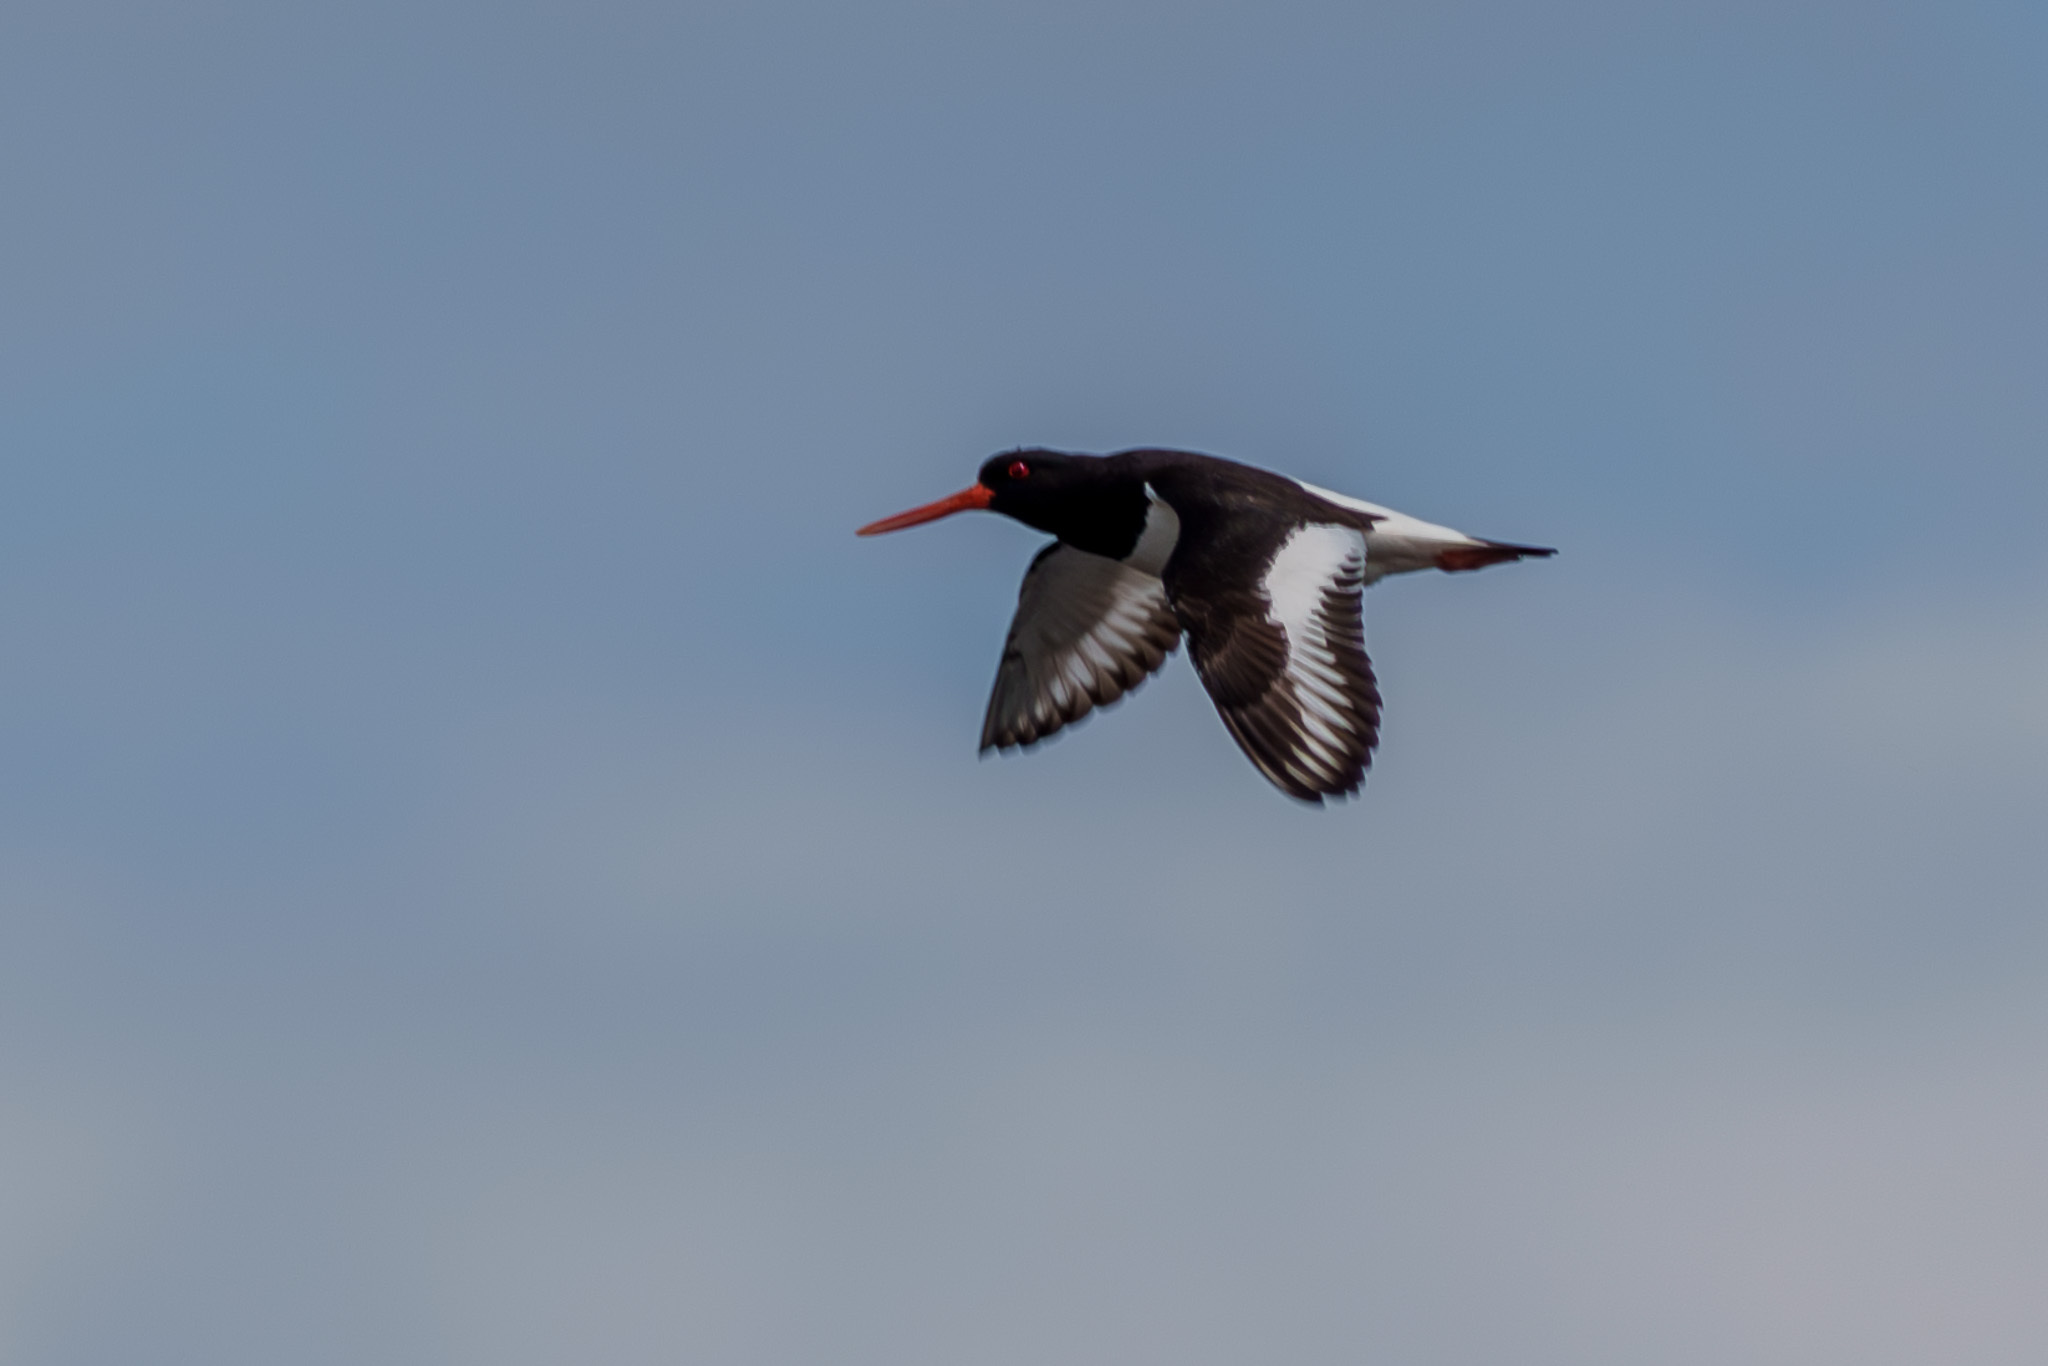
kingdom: Animalia
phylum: Chordata
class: Aves
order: Charadriiformes
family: Haematopodidae
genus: Haematopus
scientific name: Haematopus ostralegus
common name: Eurasian oystercatcher
